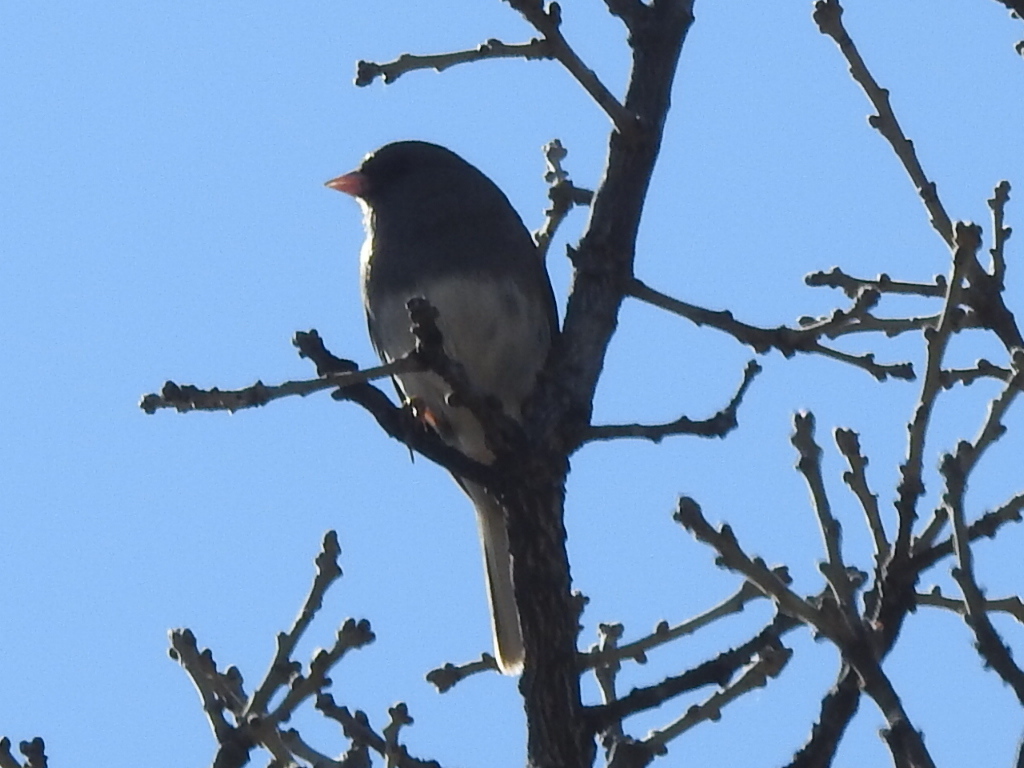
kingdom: Animalia
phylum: Chordata
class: Aves
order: Passeriformes
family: Passerellidae
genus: Junco
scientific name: Junco hyemalis
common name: Dark-eyed junco
